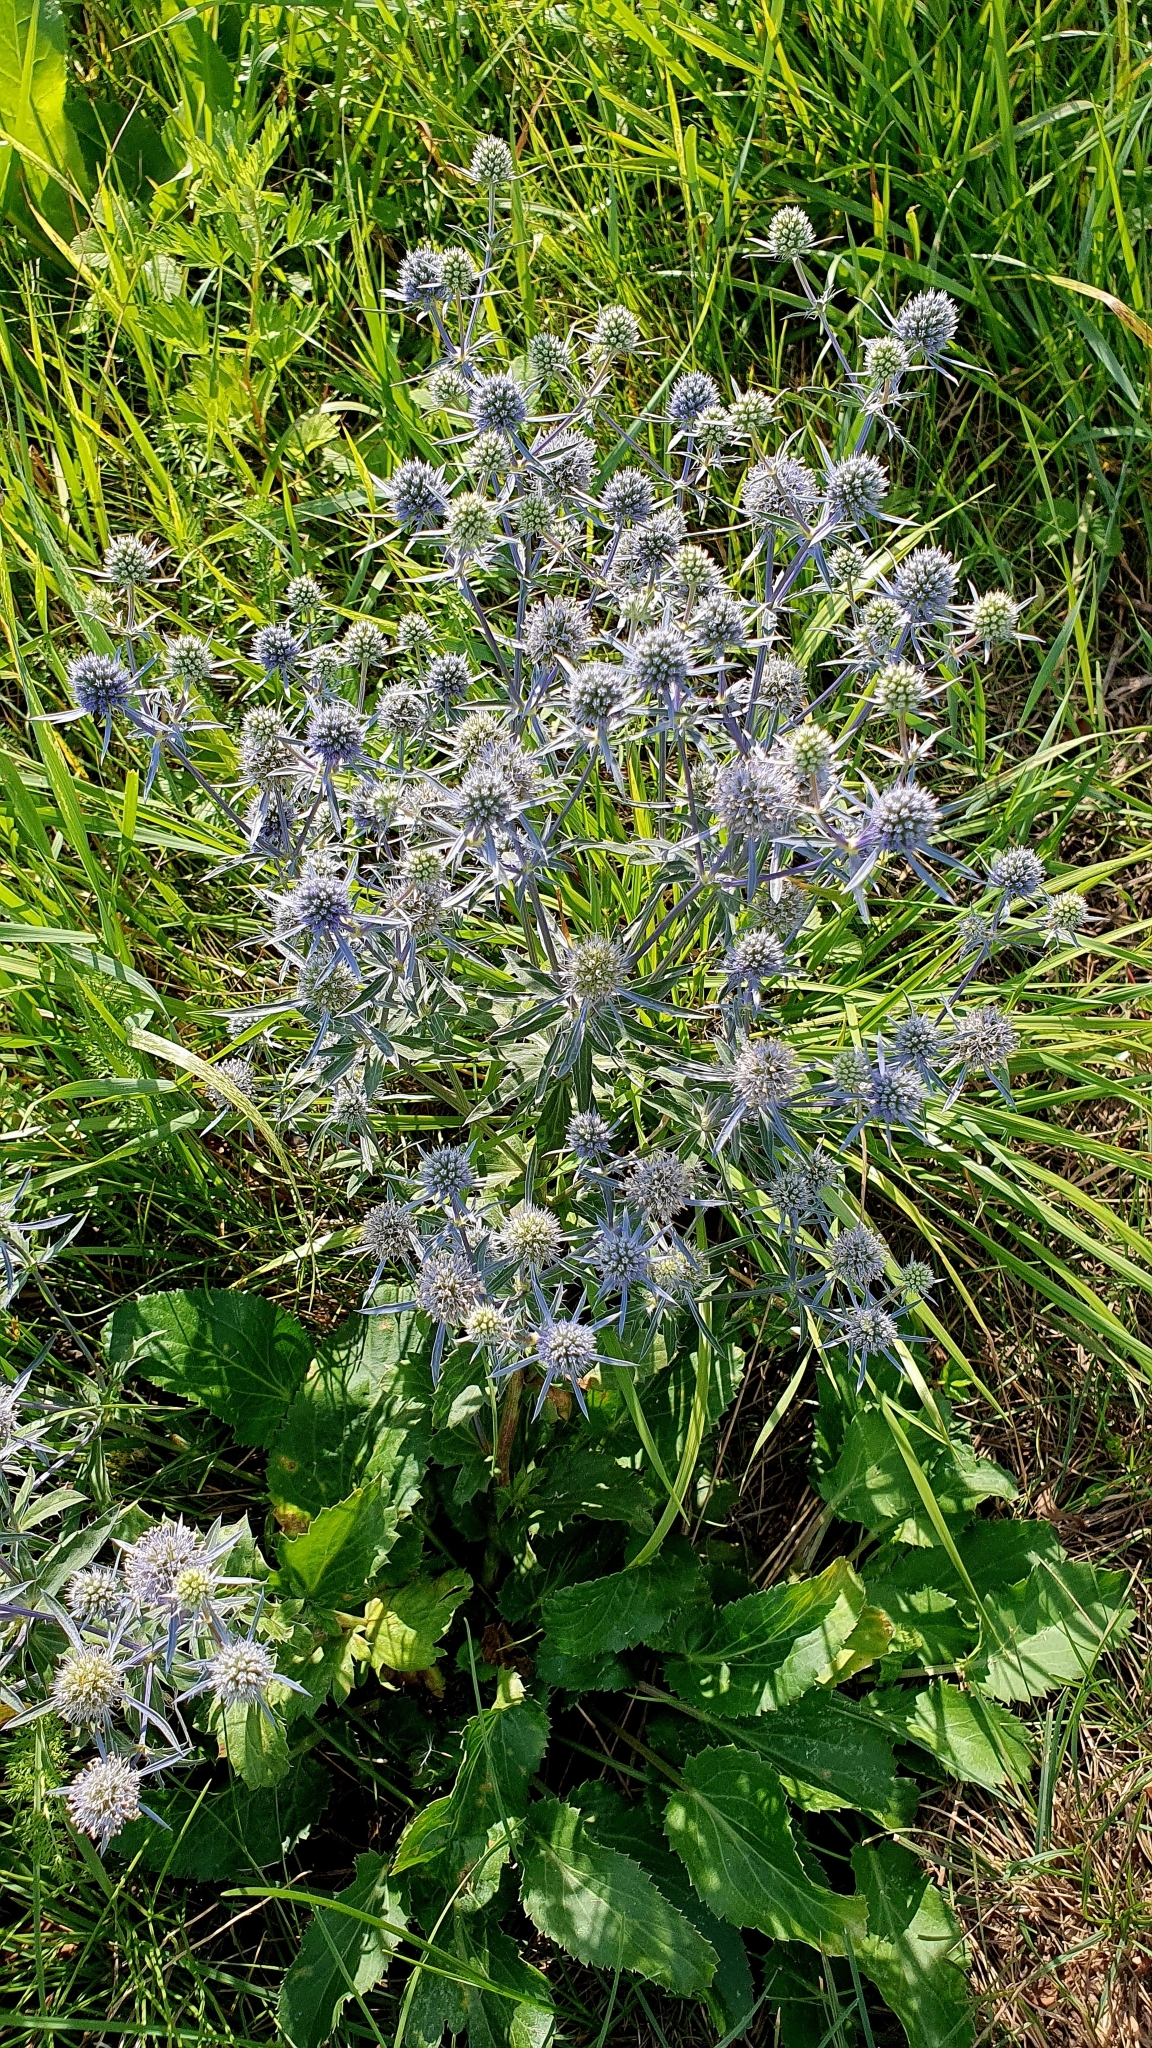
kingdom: Plantae
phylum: Tracheophyta
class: Magnoliopsida
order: Apiales
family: Apiaceae
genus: Eryngium
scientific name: Eryngium planum
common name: Blue eryngo
